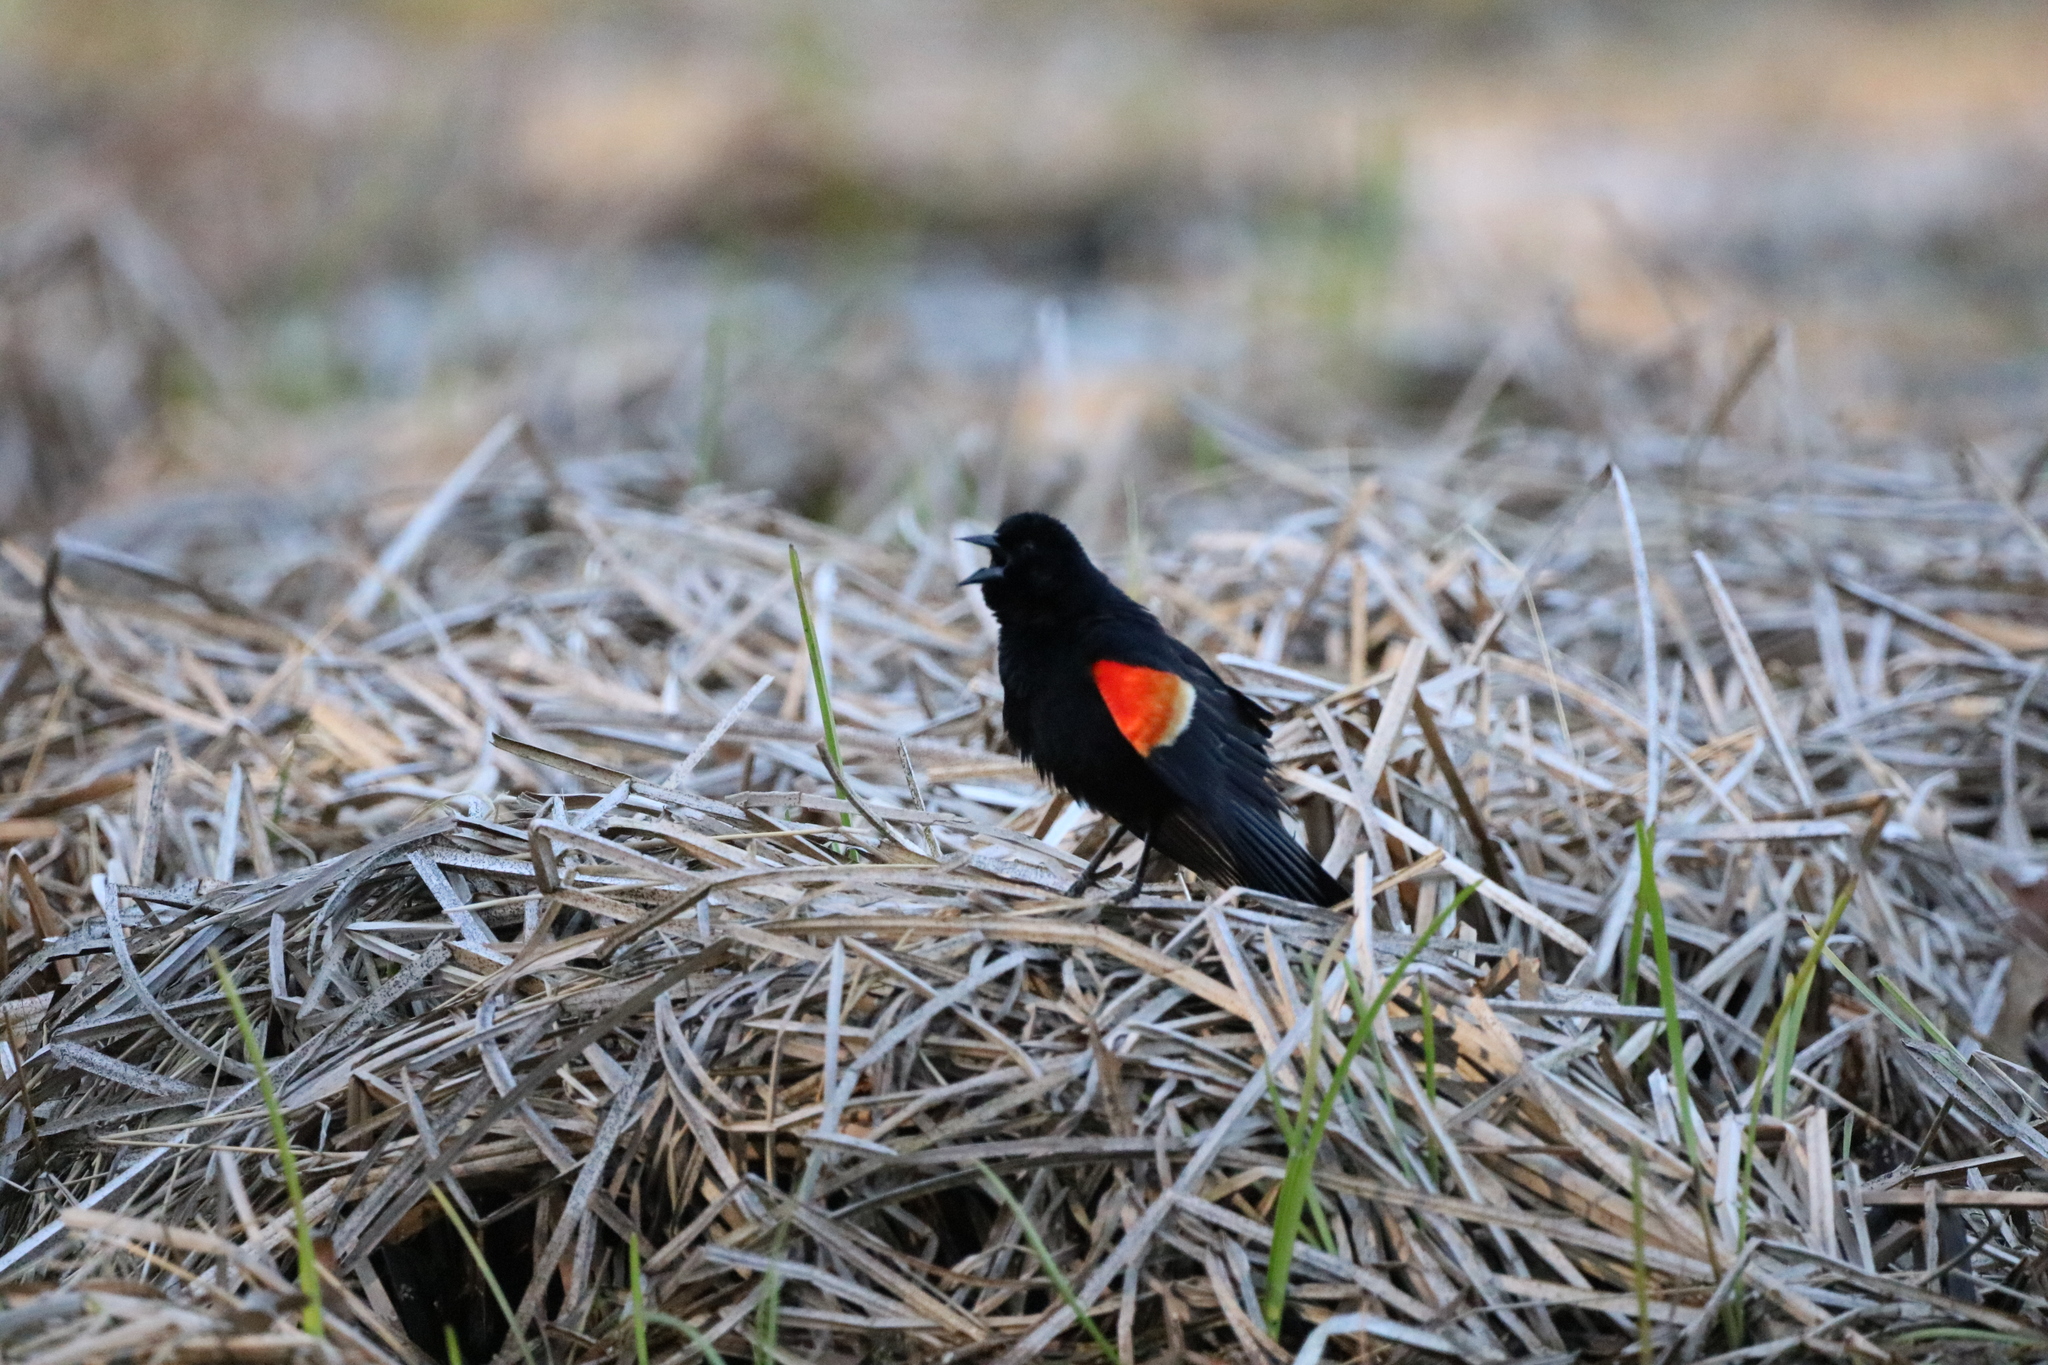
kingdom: Animalia
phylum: Chordata
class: Aves
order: Passeriformes
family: Icteridae
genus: Agelaius
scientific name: Agelaius phoeniceus
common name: Red-winged blackbird
